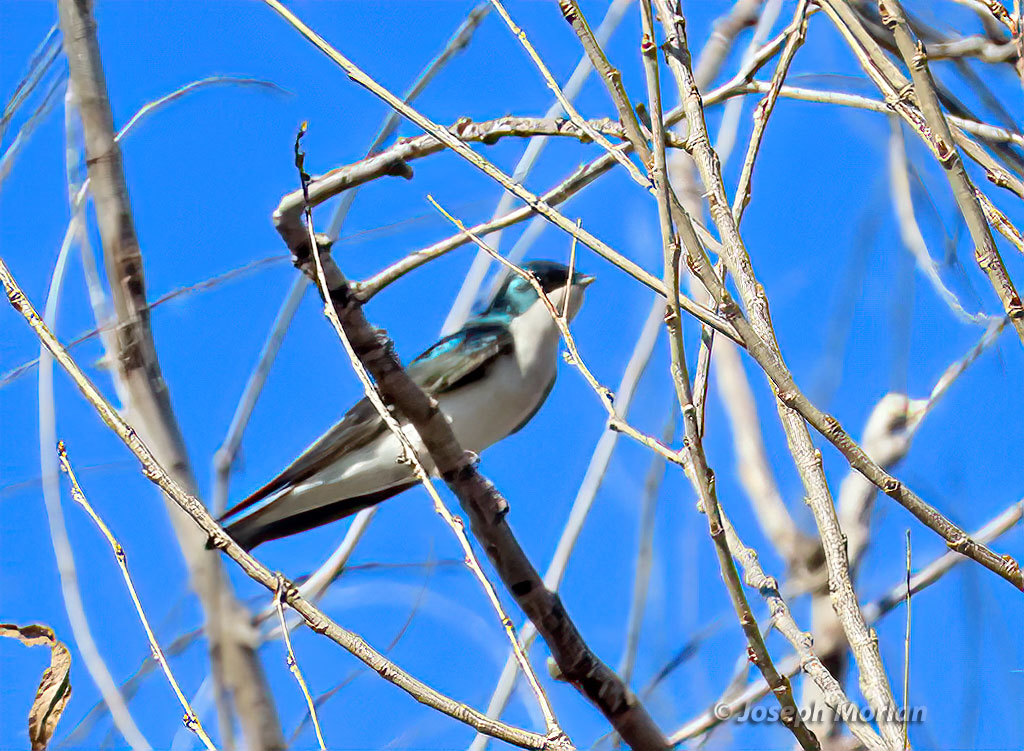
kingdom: Animalia
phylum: Chordata
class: Aves
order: Passeriformes
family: Hirundinidae
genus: Tachycineta
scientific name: Tachycineta bicolor
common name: Tree swallow
